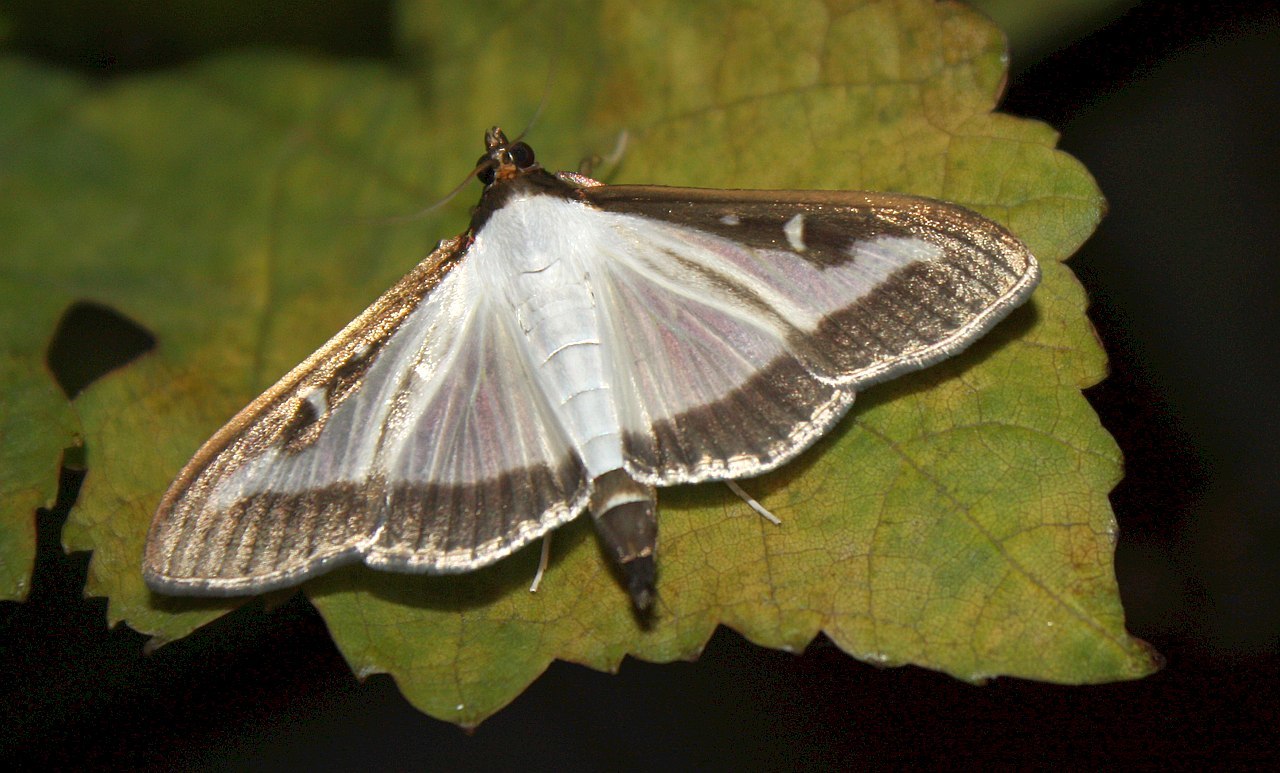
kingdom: Animalia
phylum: Arthropoda
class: Insecta
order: Lepidoptera
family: Crambidae
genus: Cydalima
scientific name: Cydalima perspectalis
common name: Box tree moth
